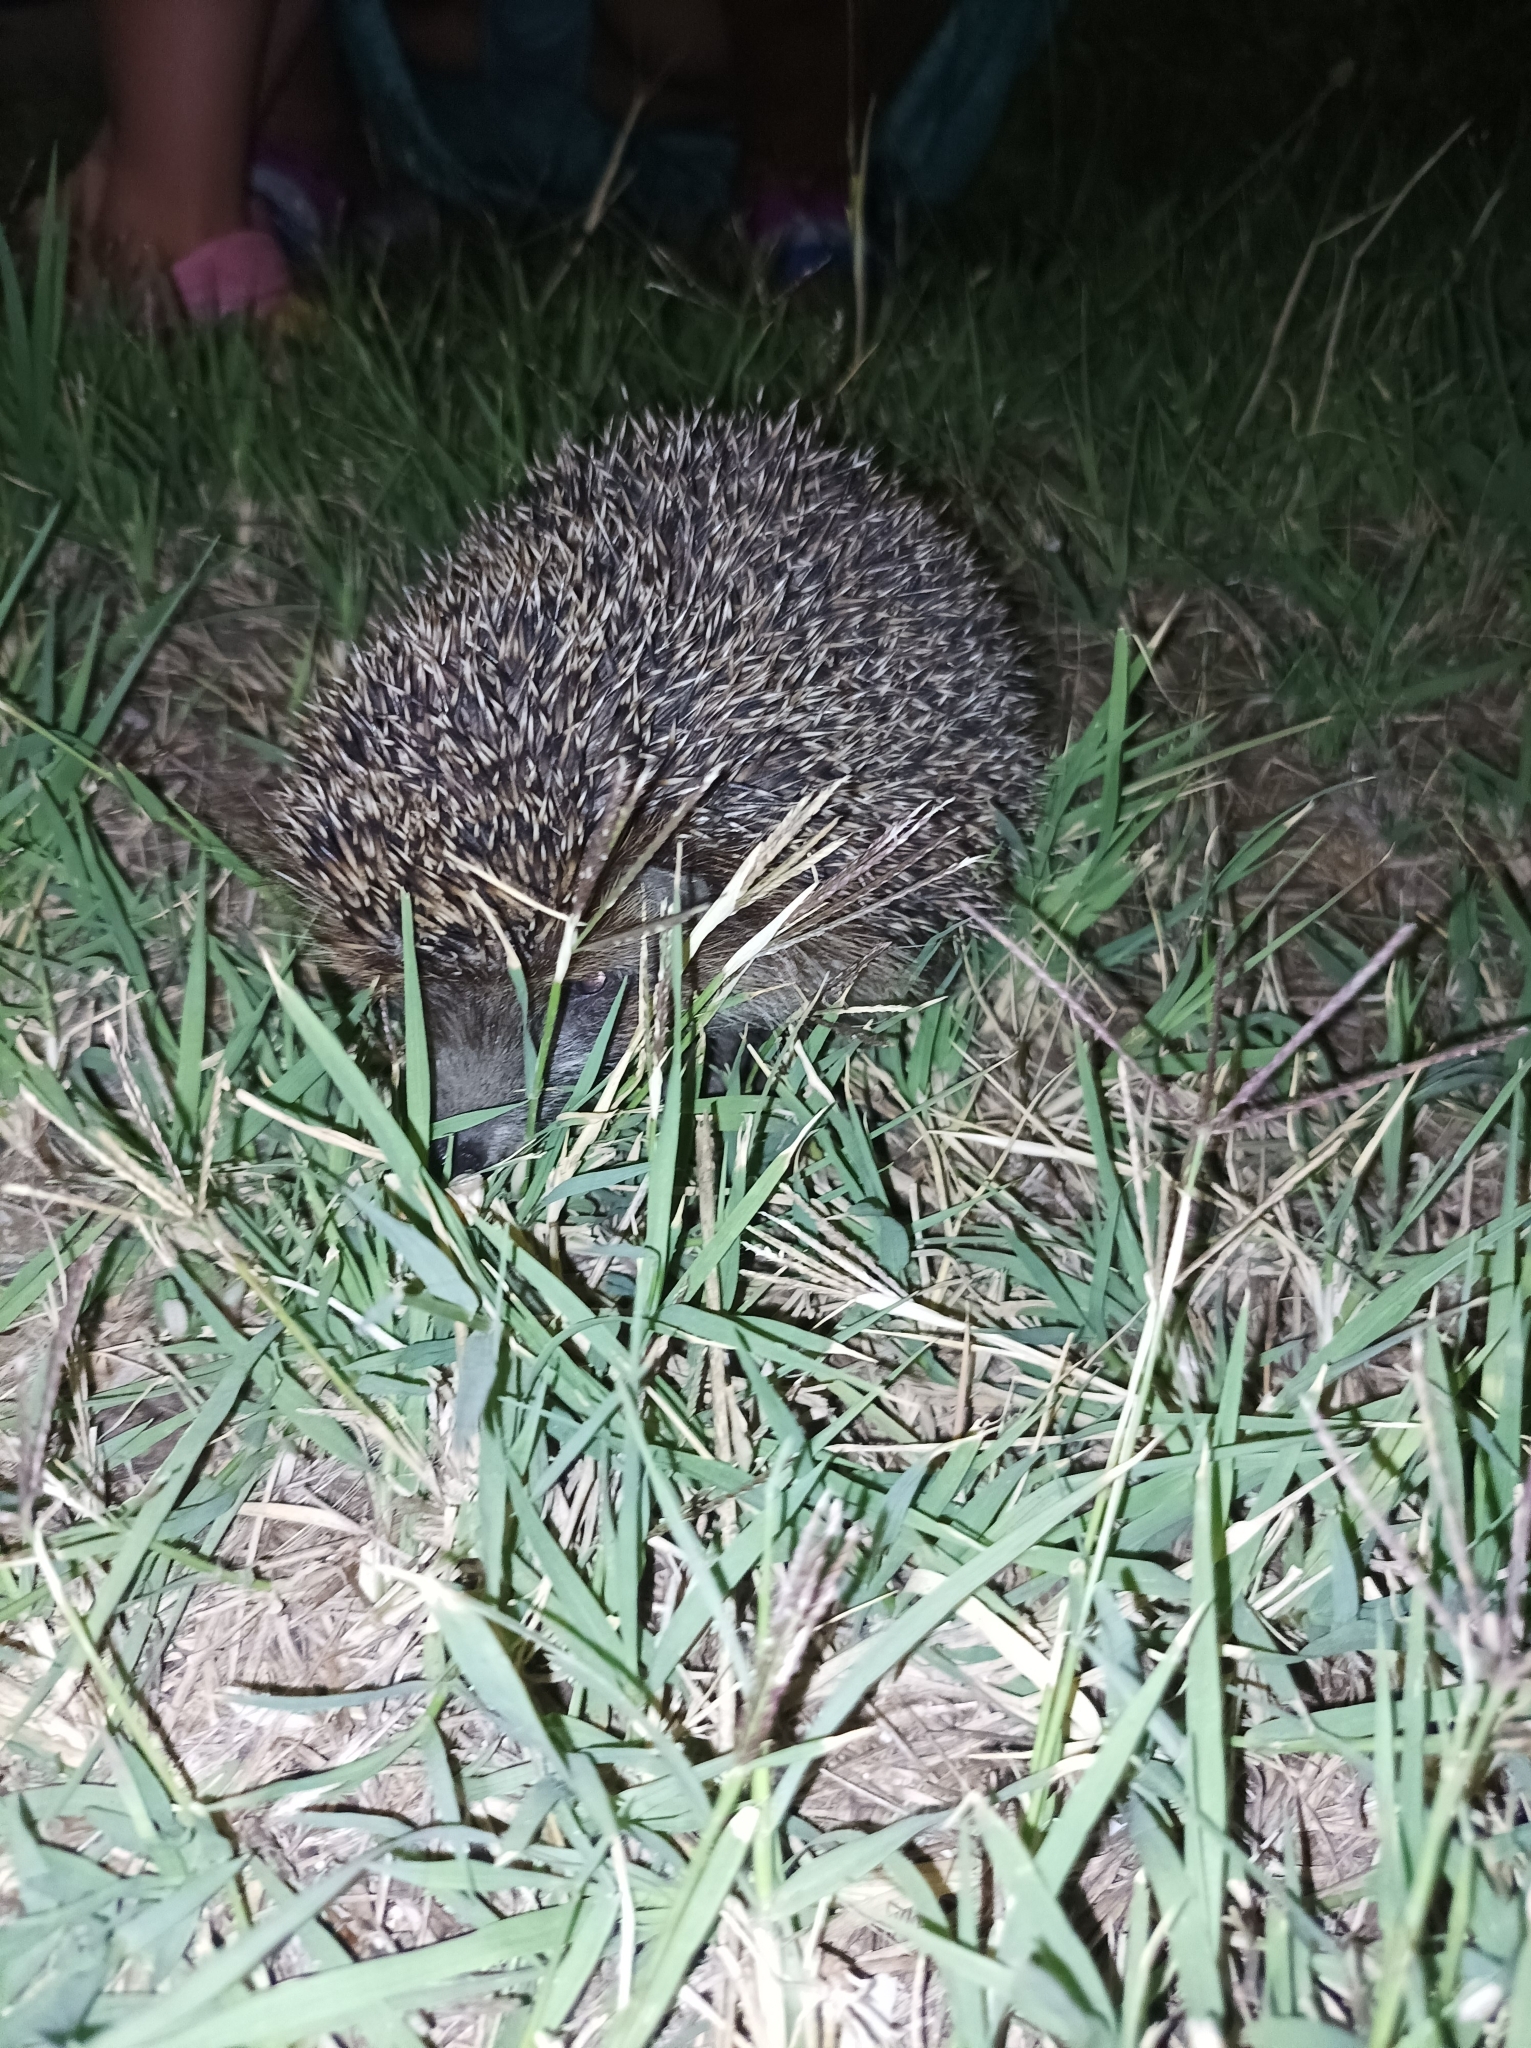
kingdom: Animalia
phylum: Chordata
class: Mammalia
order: Erinaceomorpha
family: Erinaceidae
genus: Erinaceus
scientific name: Erinaceus roumanicus
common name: Northern white-breasted hedgehog
